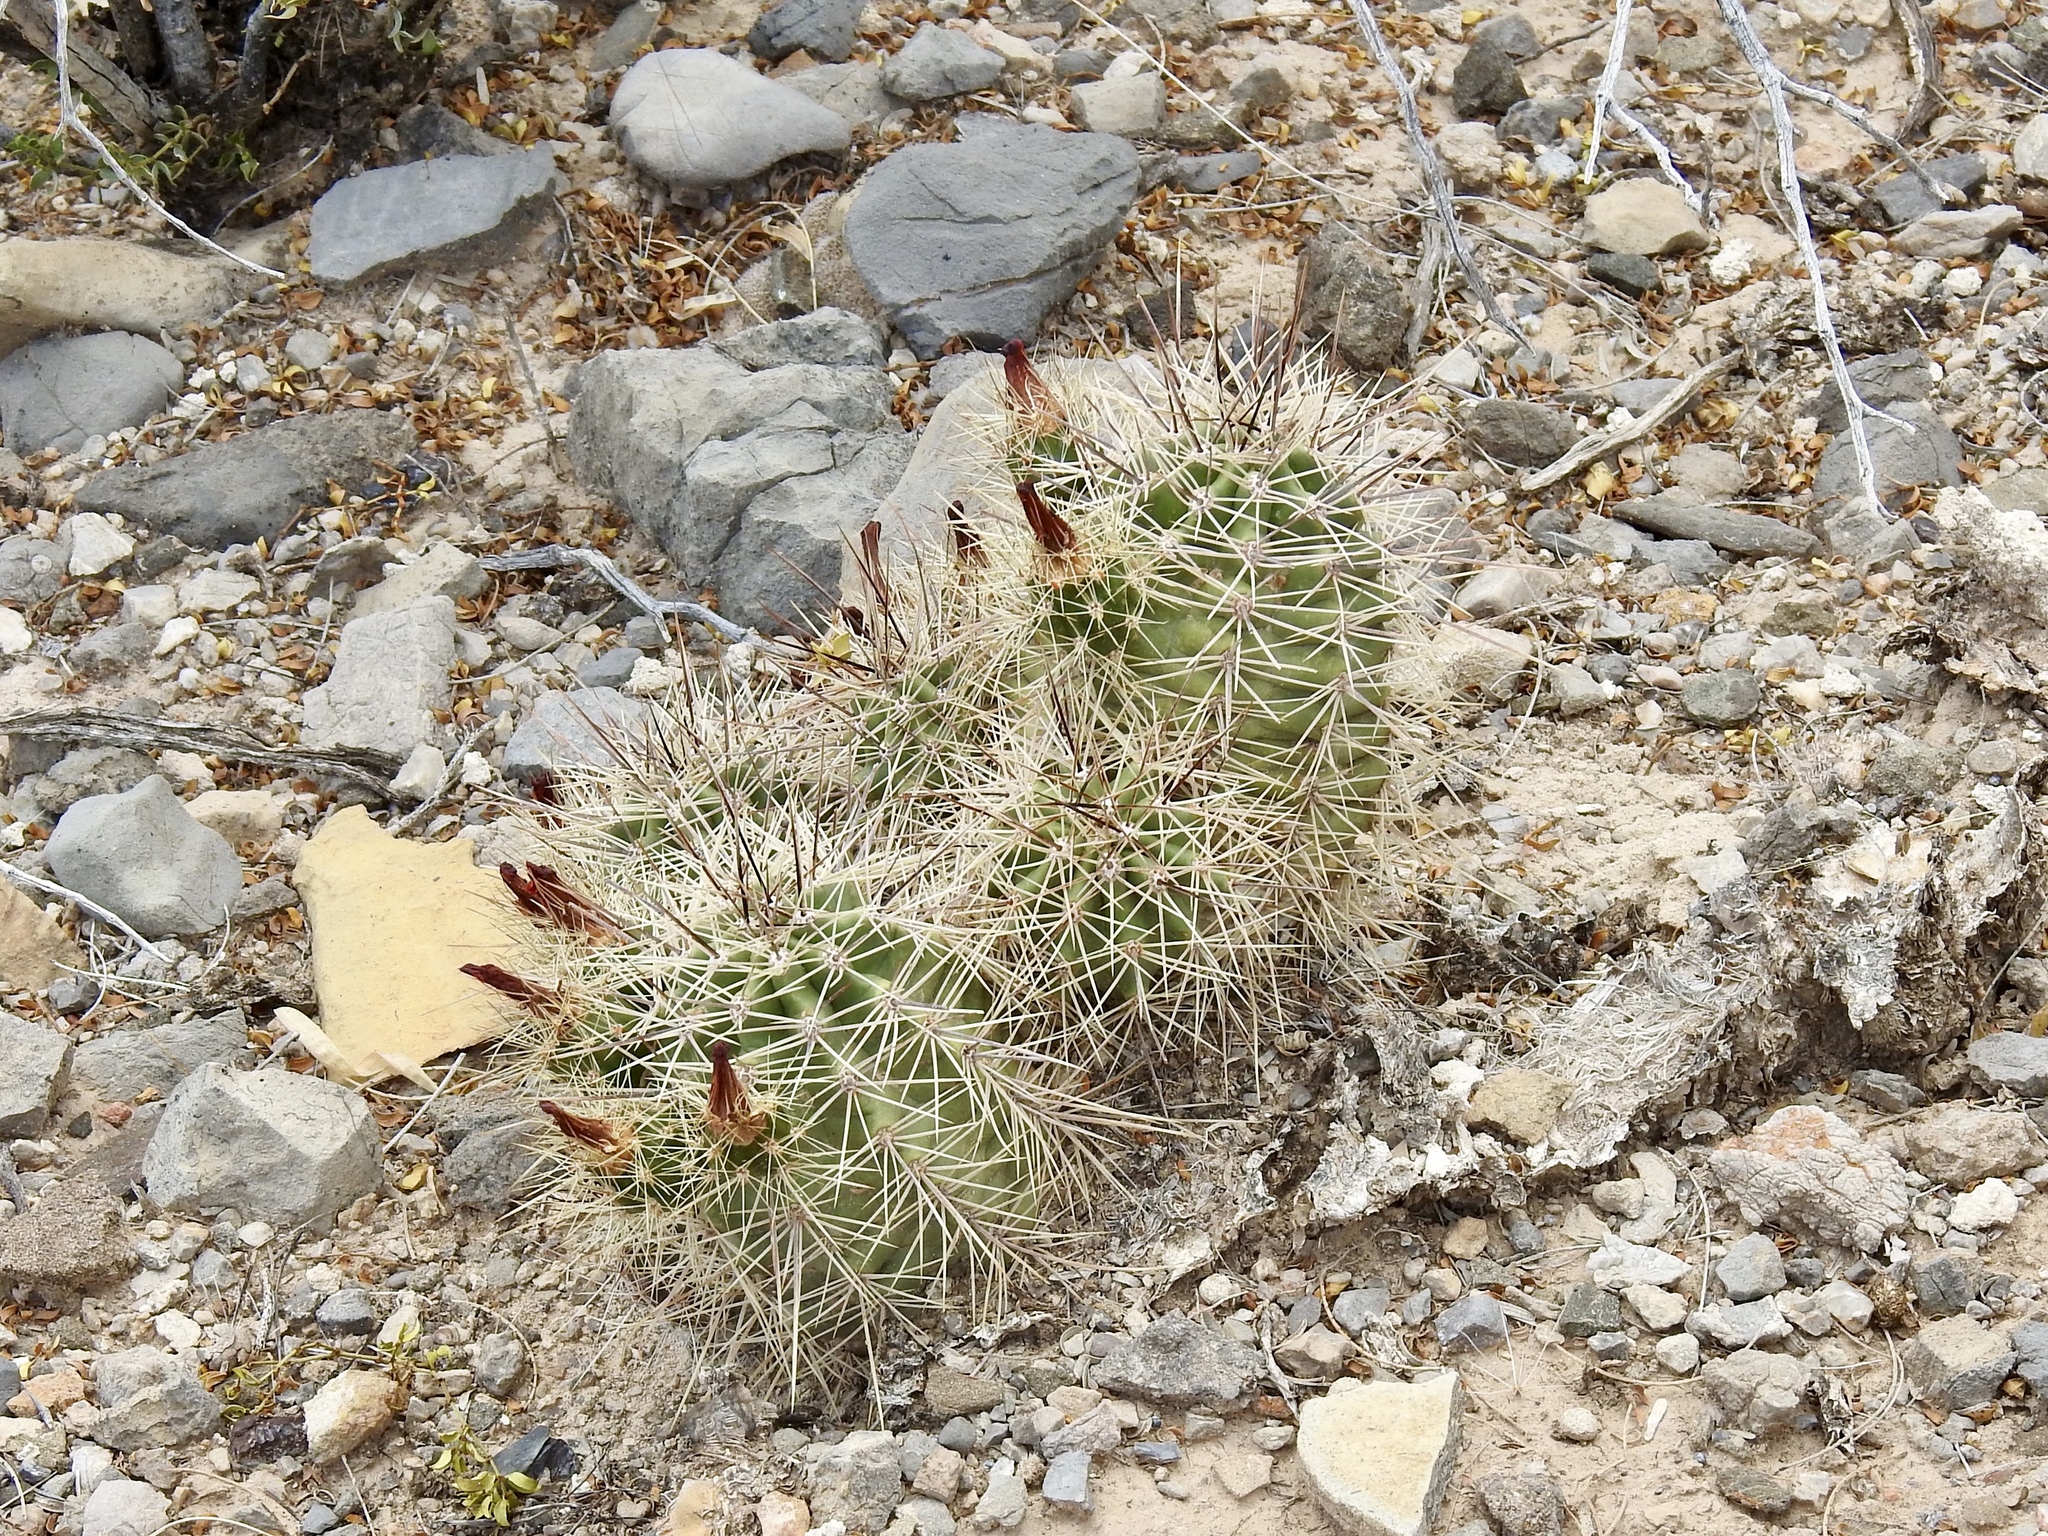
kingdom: Plantae
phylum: Tracheophyta
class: Magnoliopsida
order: Caryophyllales
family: Cactaceae
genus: Echinocereus
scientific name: Echinocereus coccineus
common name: Scarlet hedgehog cactus
